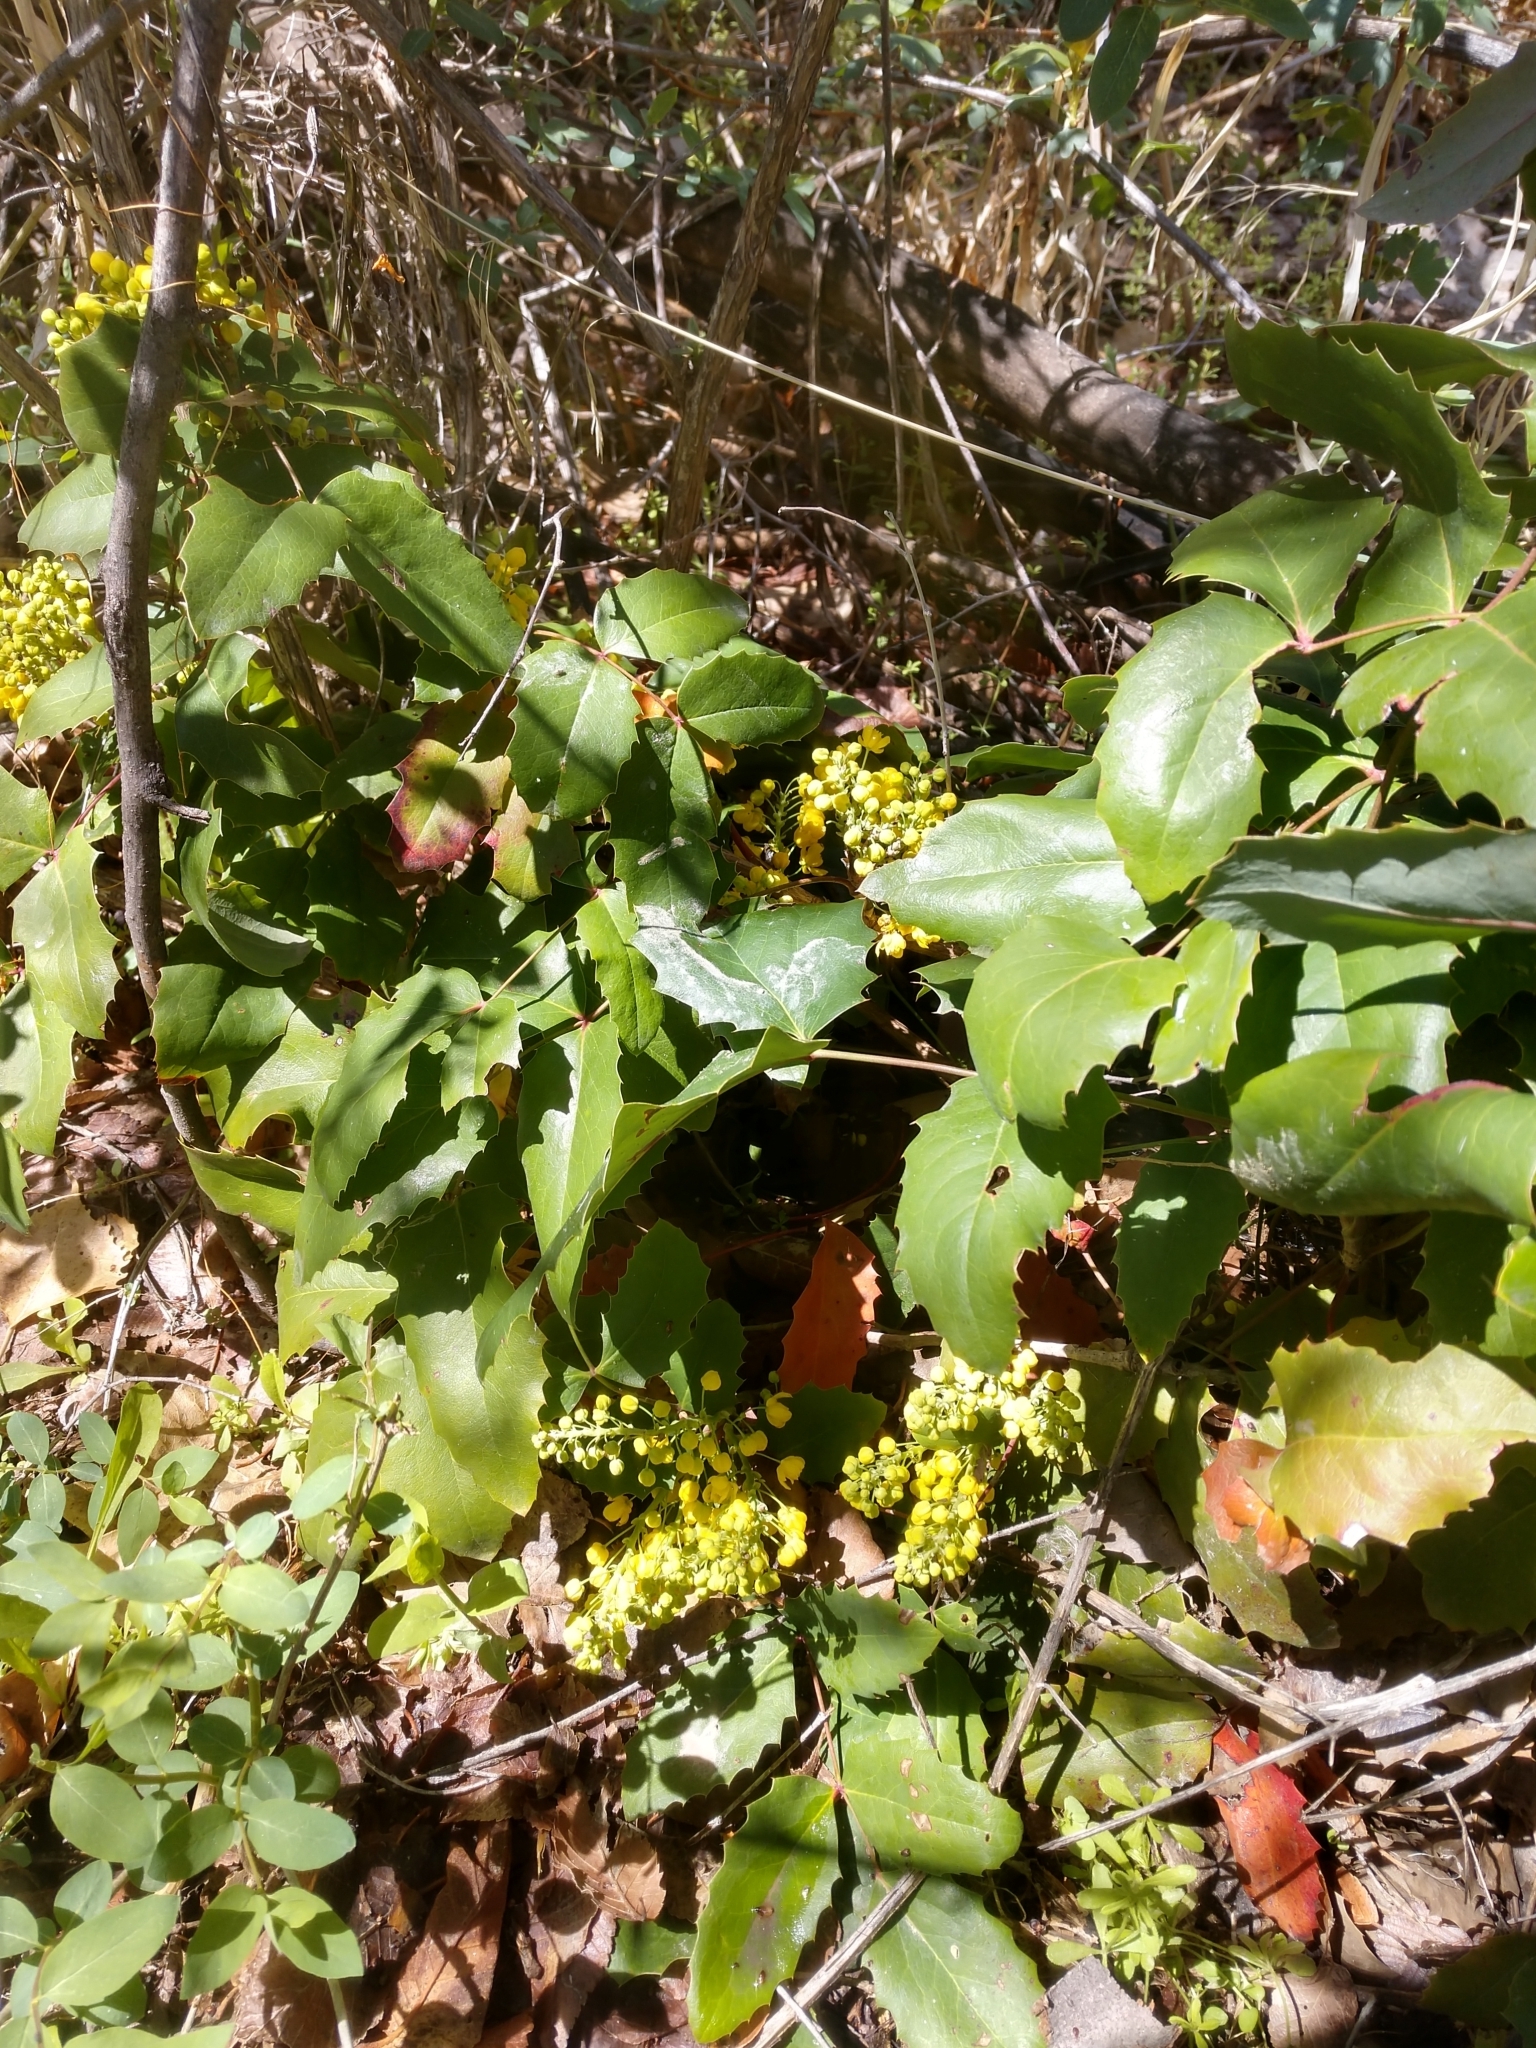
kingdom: Plantae
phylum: Tracheophyta
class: Magnoliopsida
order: Ranunculales
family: Berberidaceae
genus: Mahonia
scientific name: Mahonia aquifolium
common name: Oregon-grape
